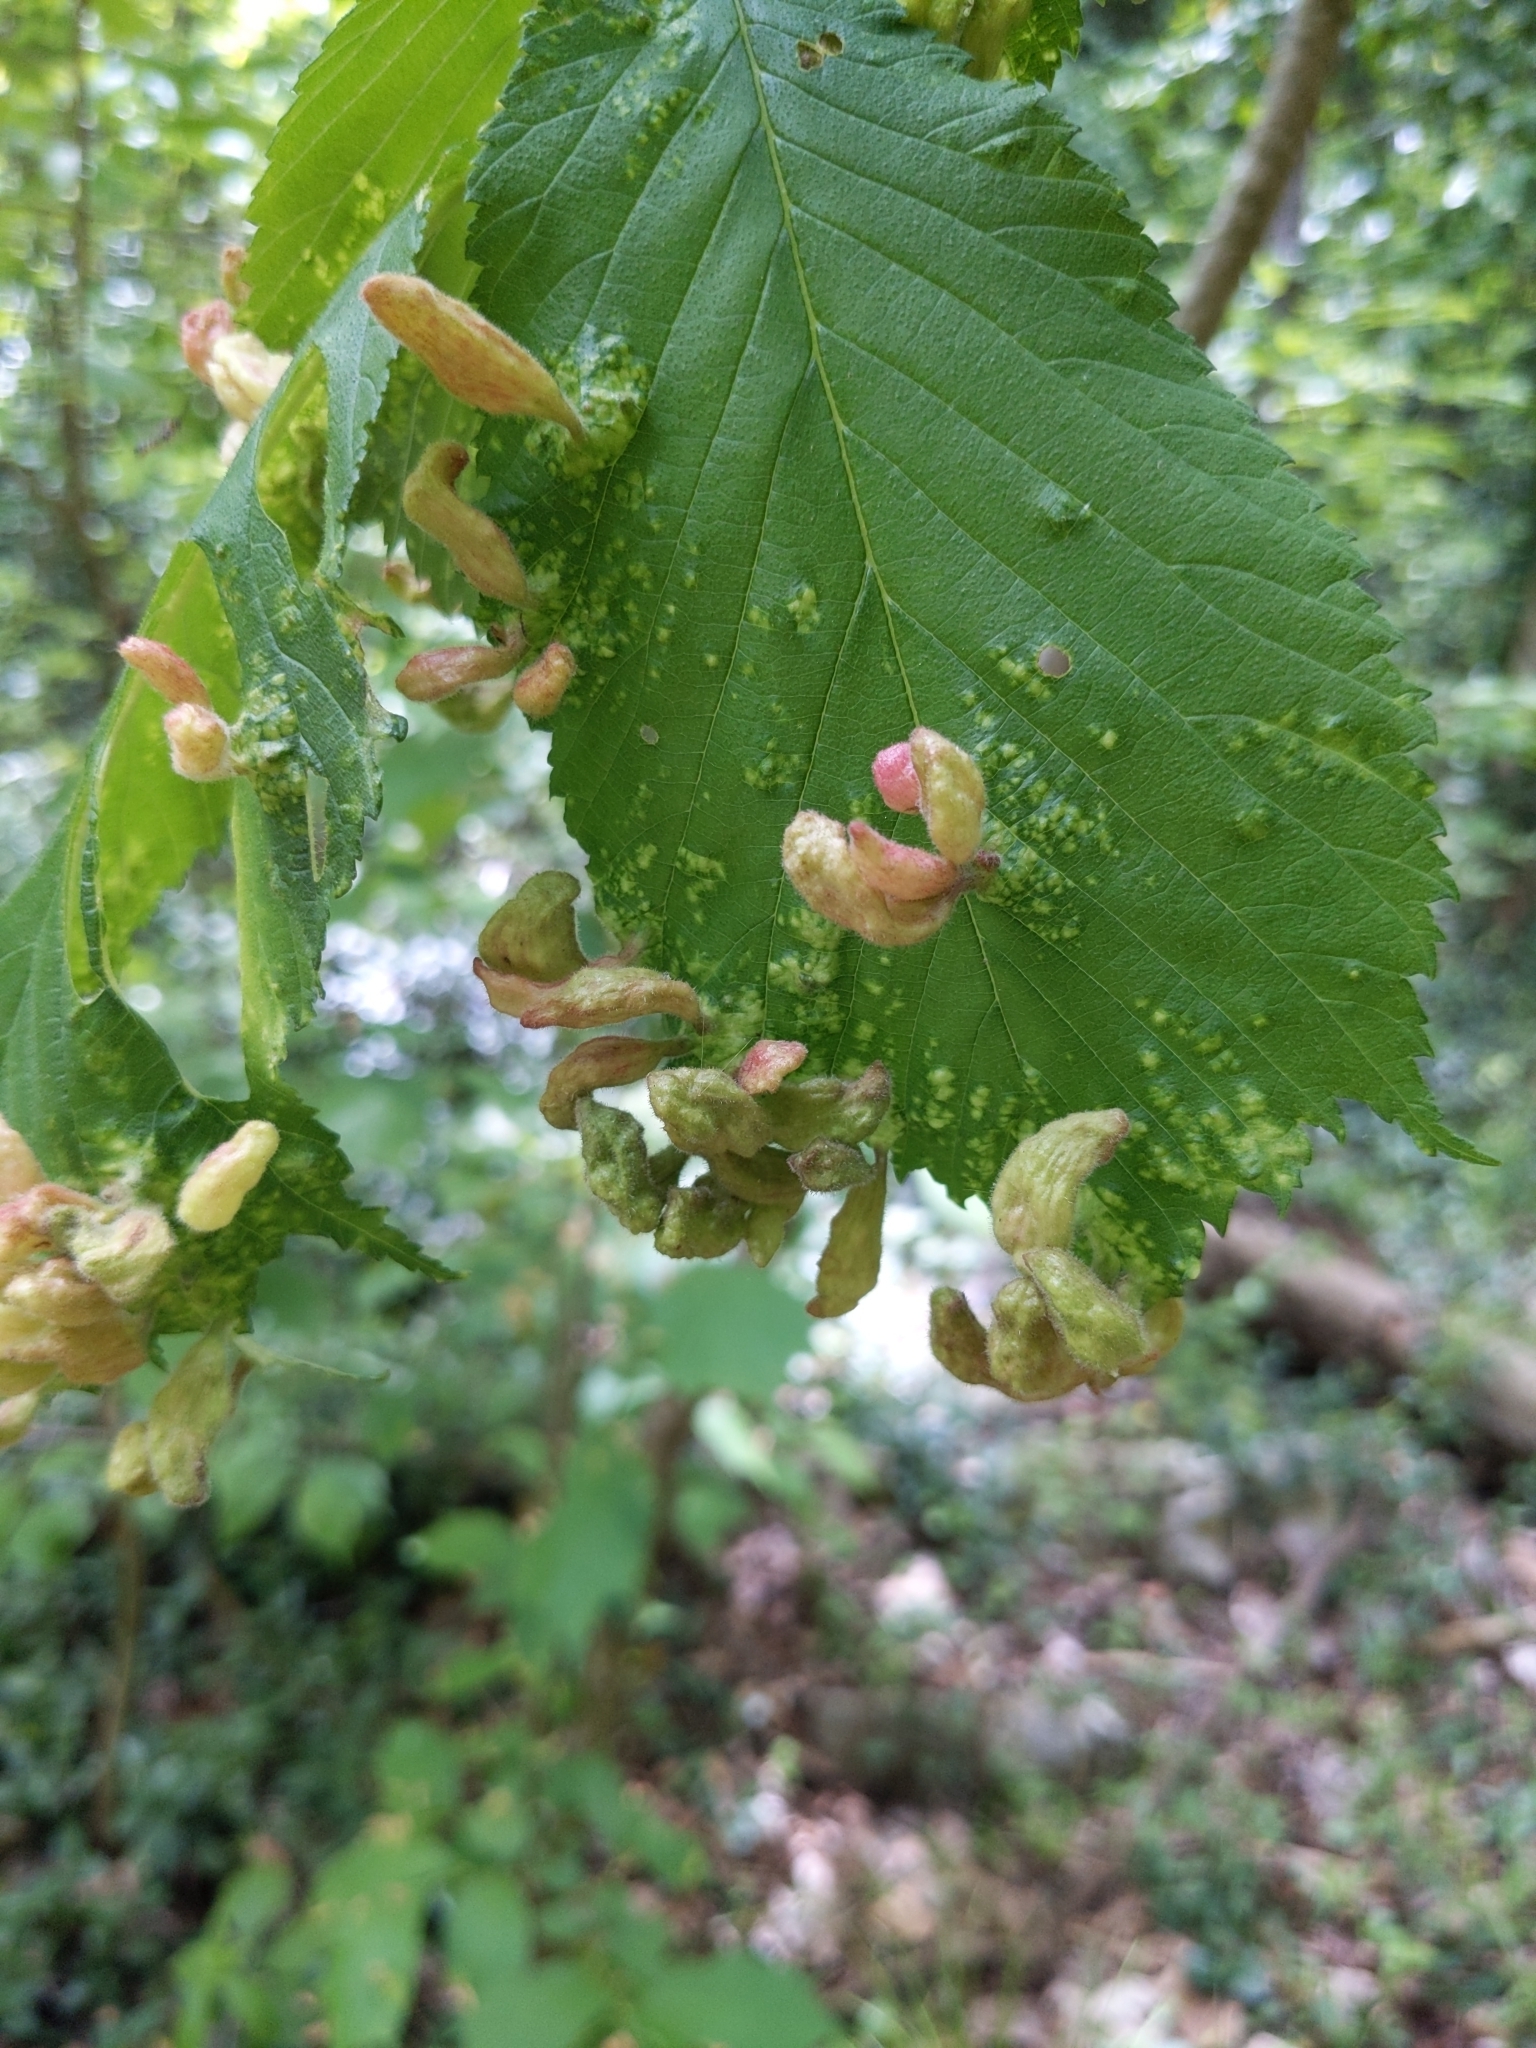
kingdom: Animalia
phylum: Arthropoda
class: Insecta
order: Hemiptera
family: Aphididae
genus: Tetraneura
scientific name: Tetraneura nigriabdominalis
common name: Aphid
